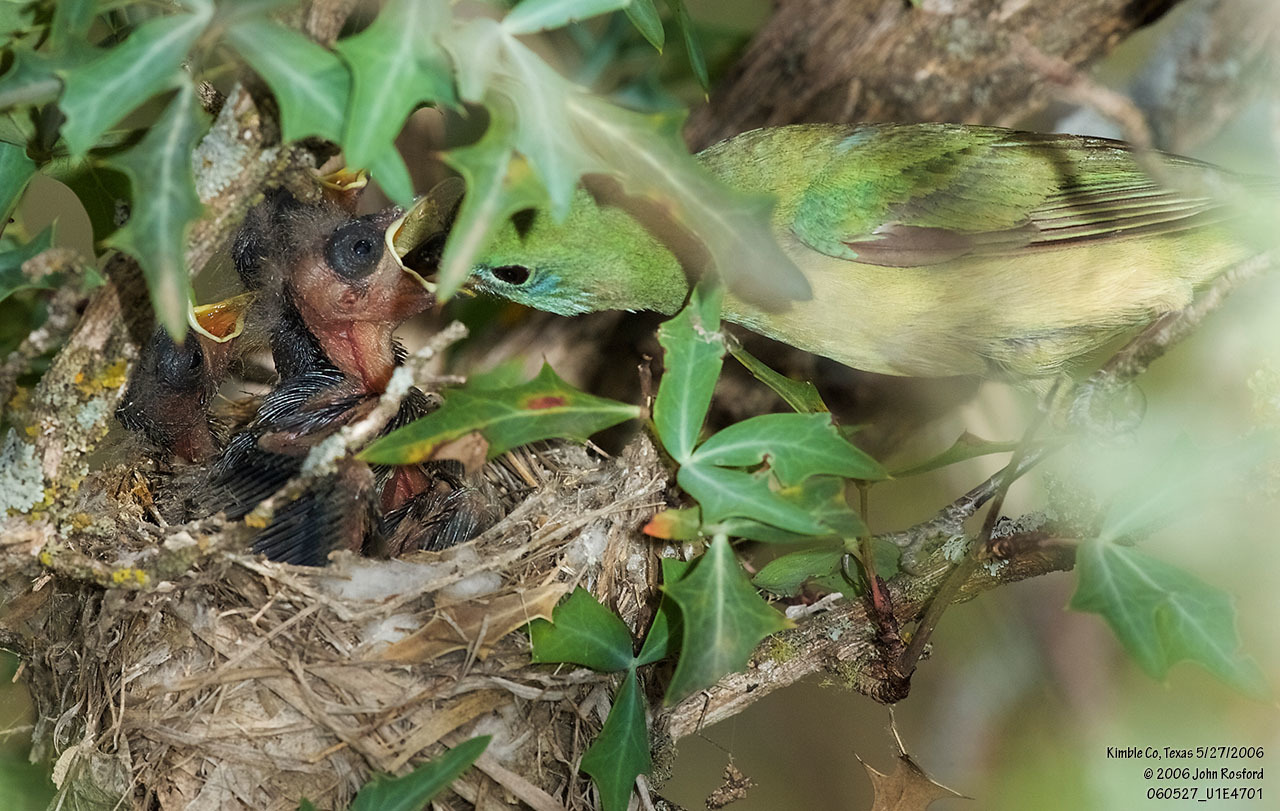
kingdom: Animalia
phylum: Chordata
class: Aves
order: Passeriformes
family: Cardinalidae
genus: Passerina
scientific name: Passerina ciris
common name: Painted bunting
